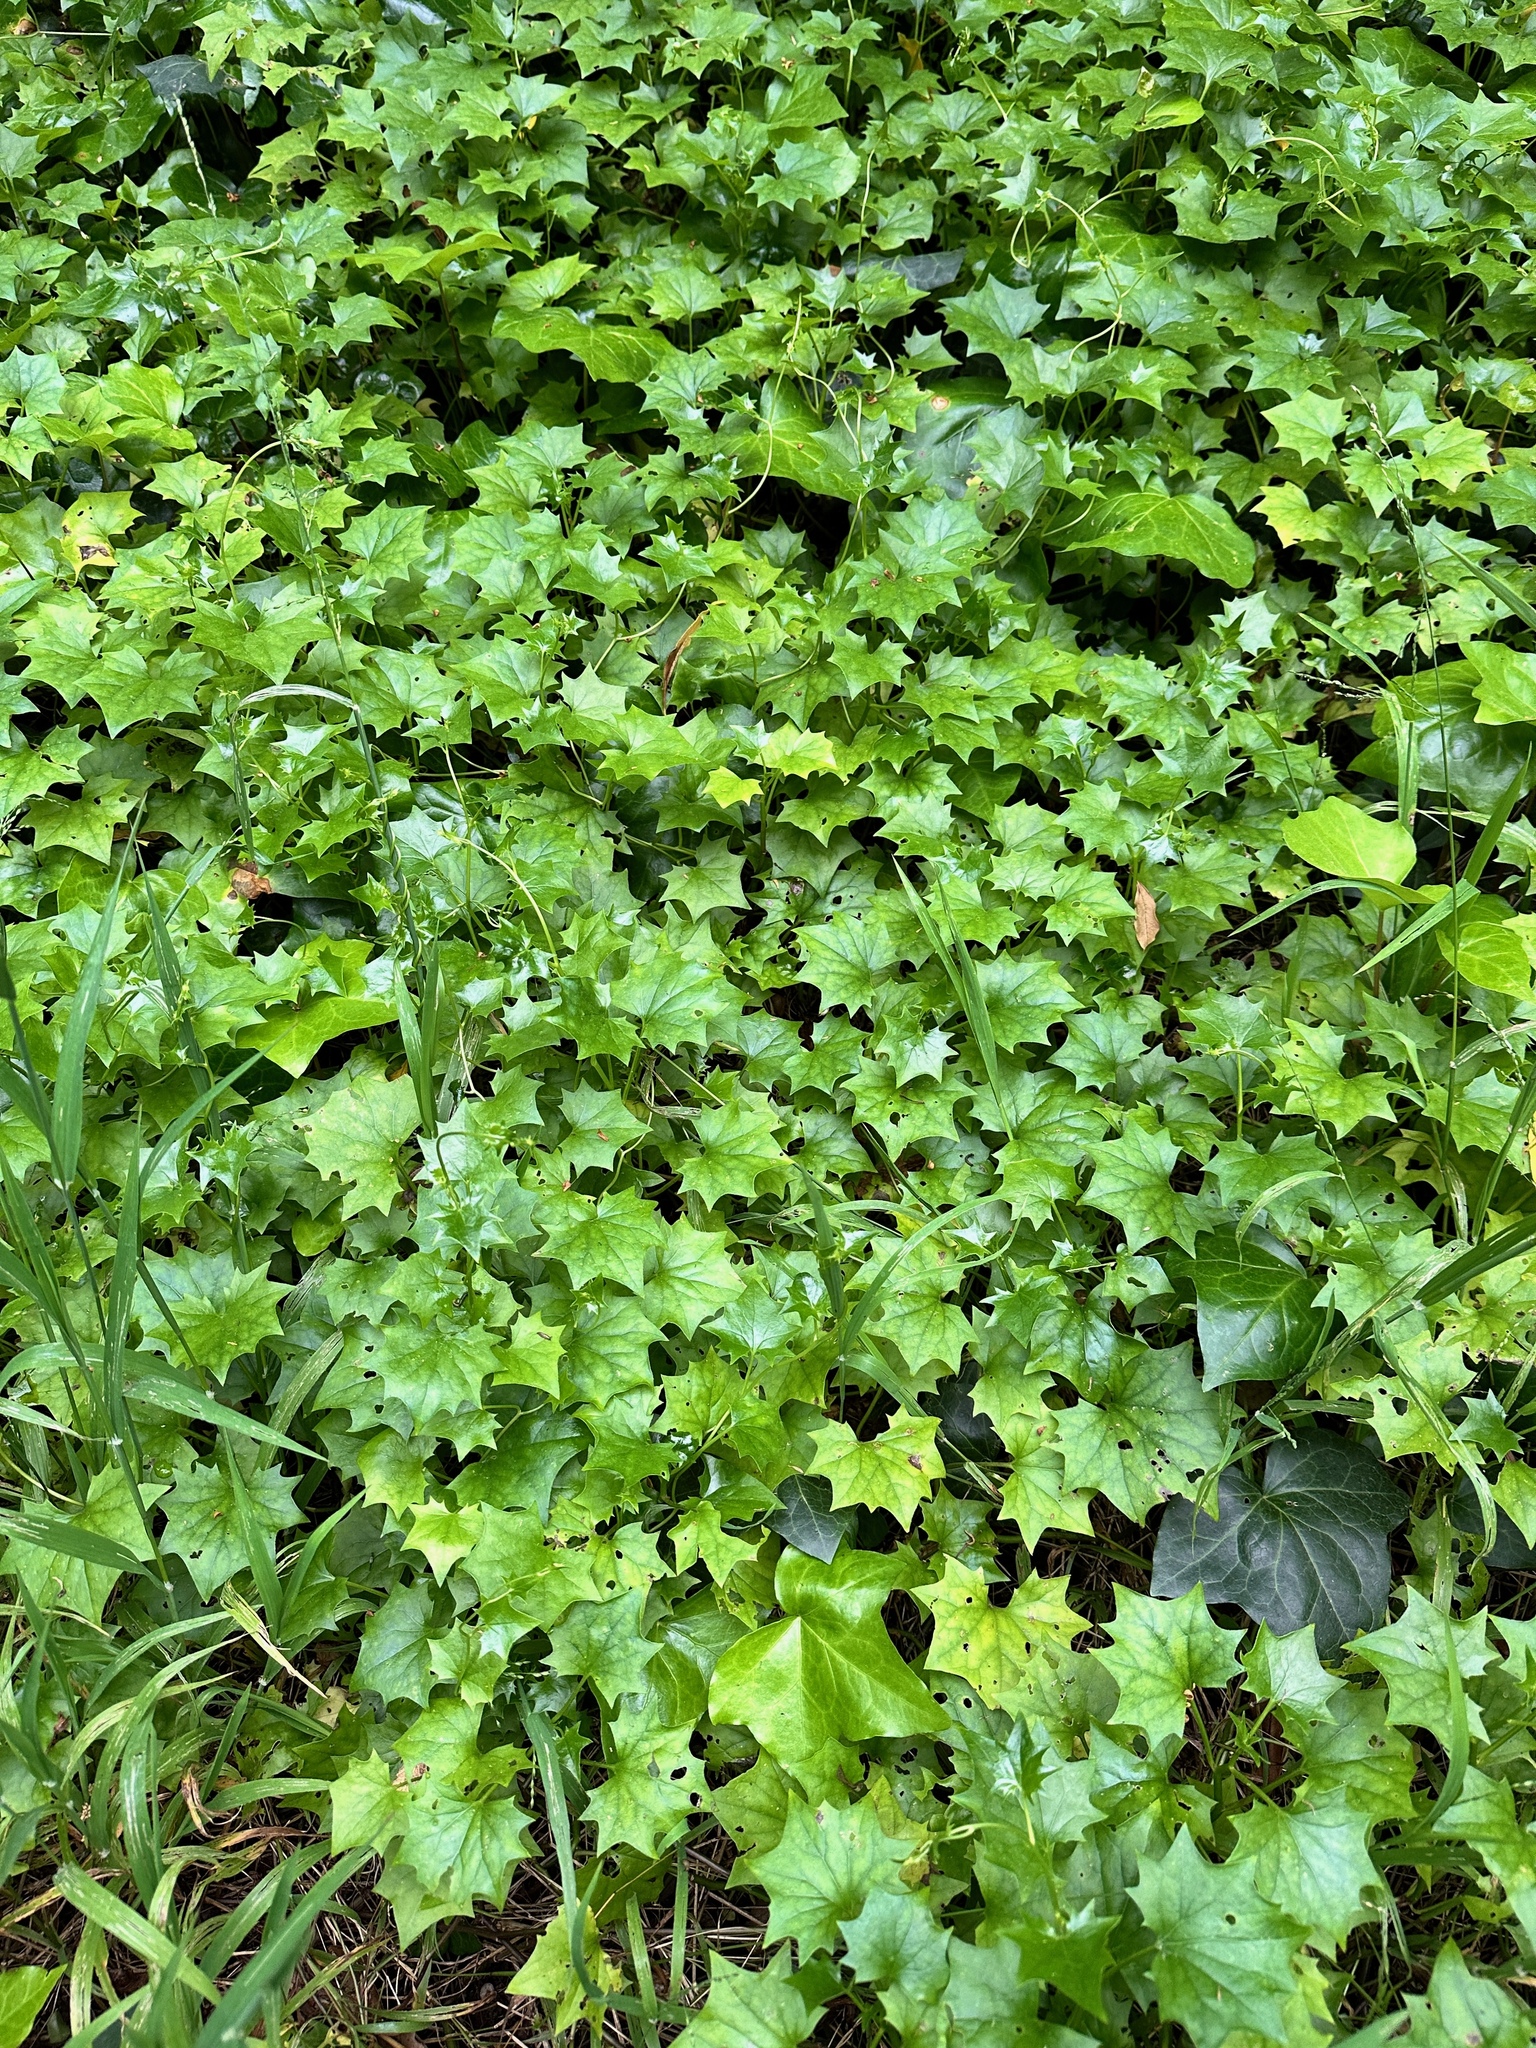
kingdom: Plantae
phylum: Tracheophyta
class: Magnoliopsida
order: Asterales
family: Asteraceae
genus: Delairea
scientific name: Delairea odorata
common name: Cape-ivy
